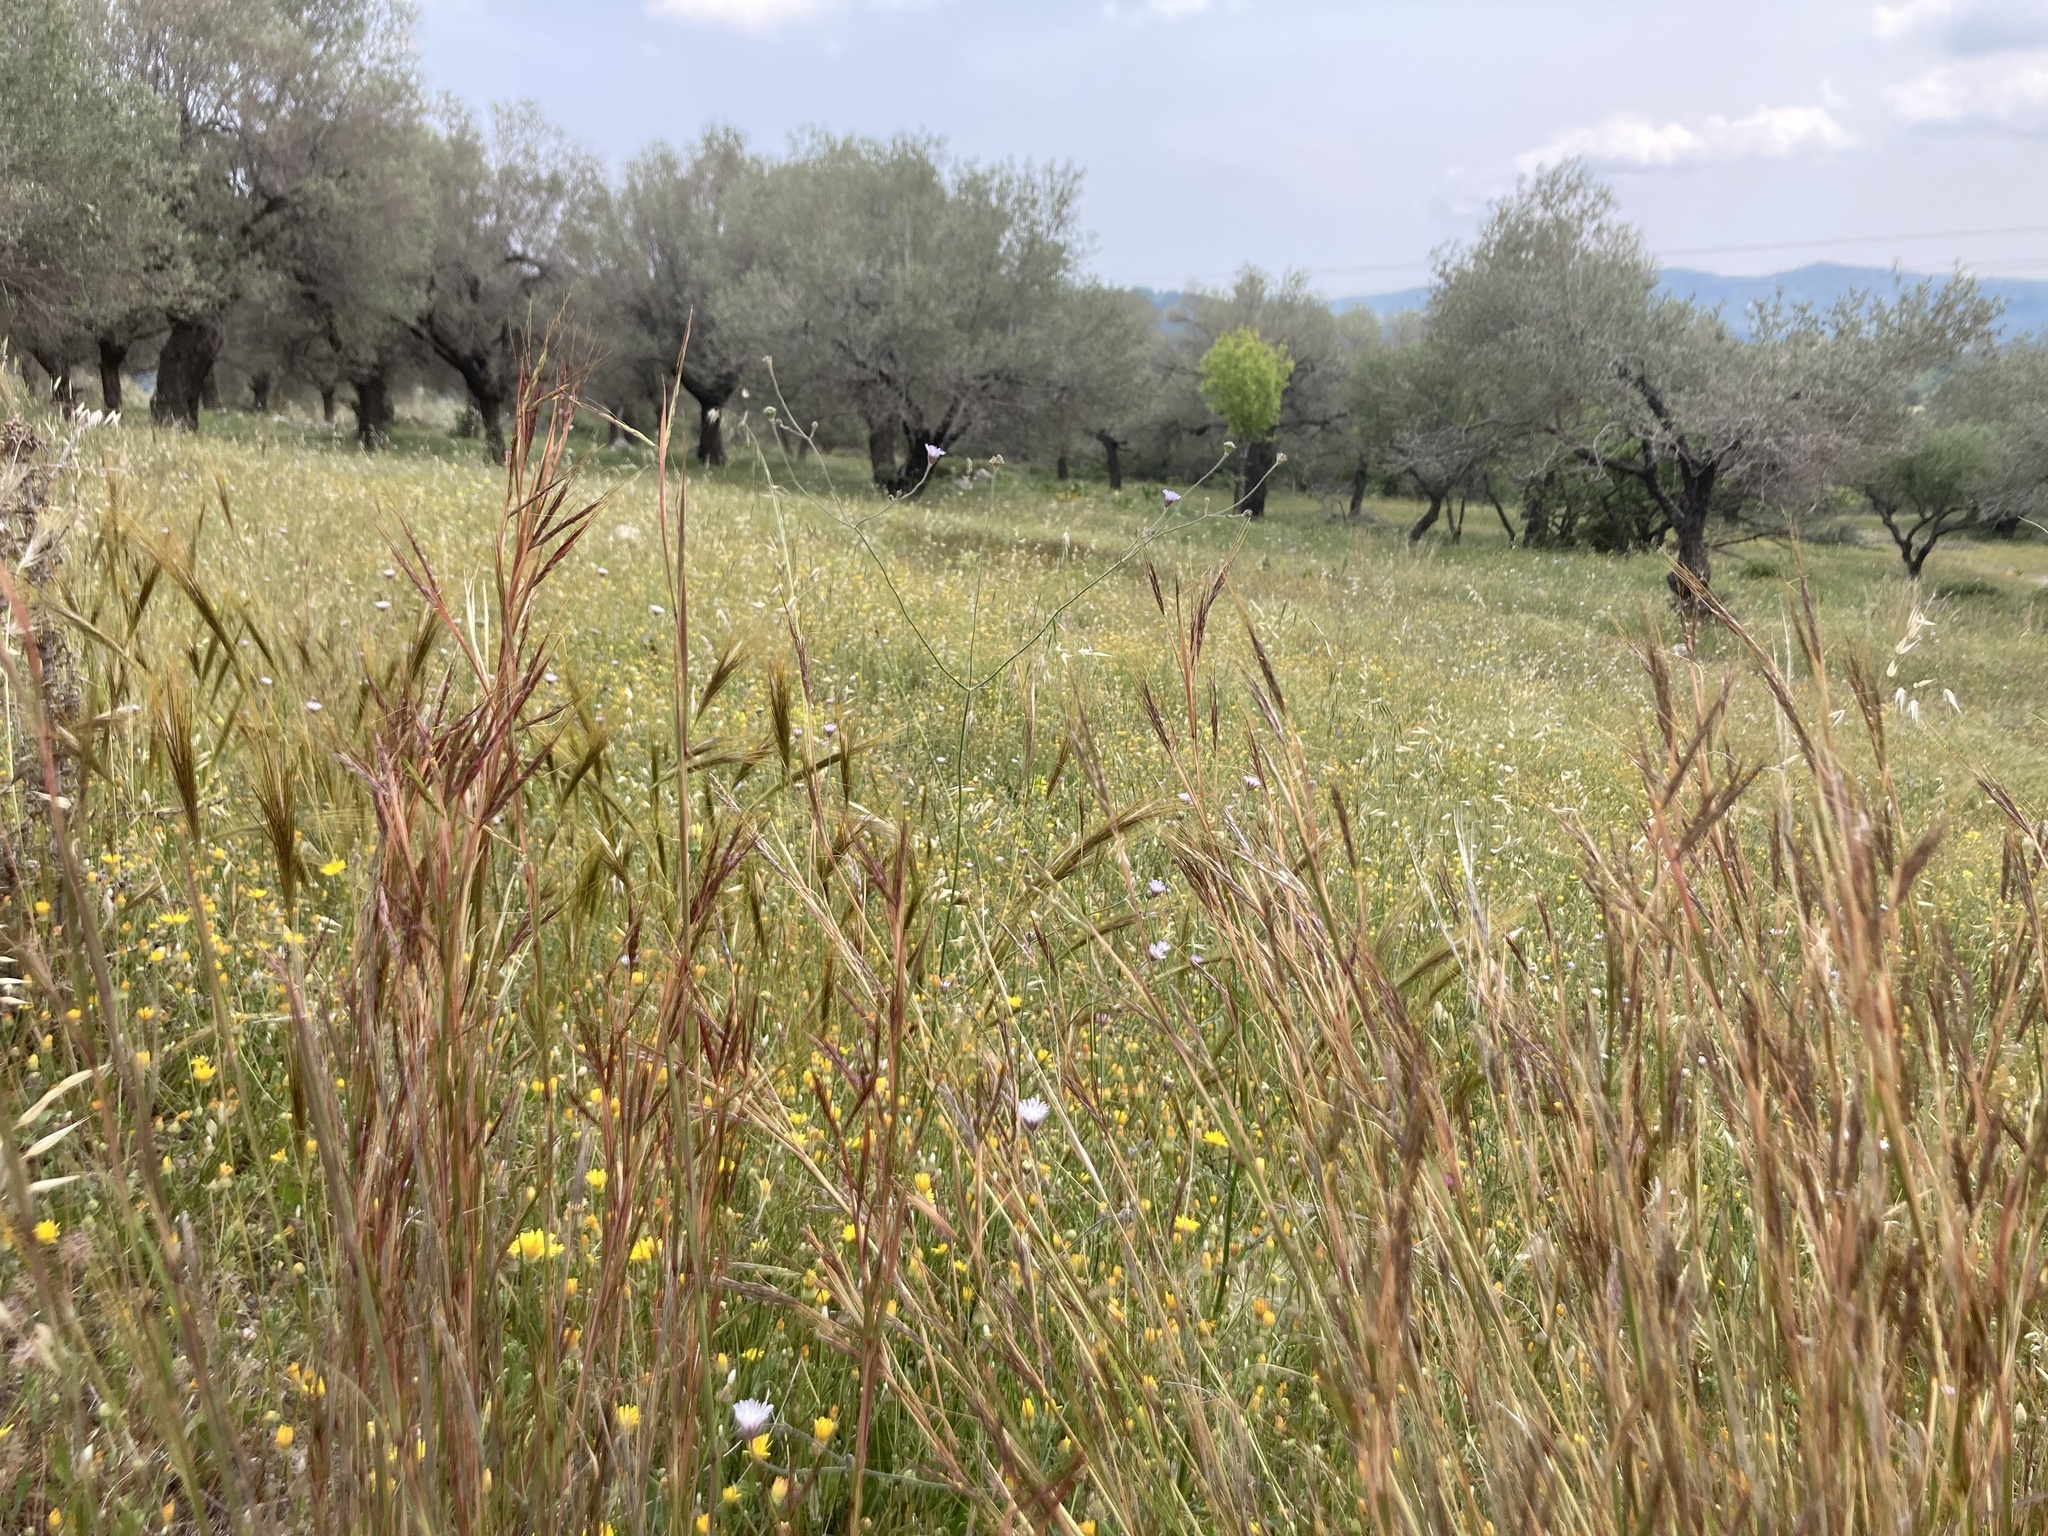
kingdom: Plantae
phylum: Tracheophyta
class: Liliopsida
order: Poales
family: Poaceae
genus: Hyparrhenia
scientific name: Hyparrhenia hirta
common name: Thatching grass
